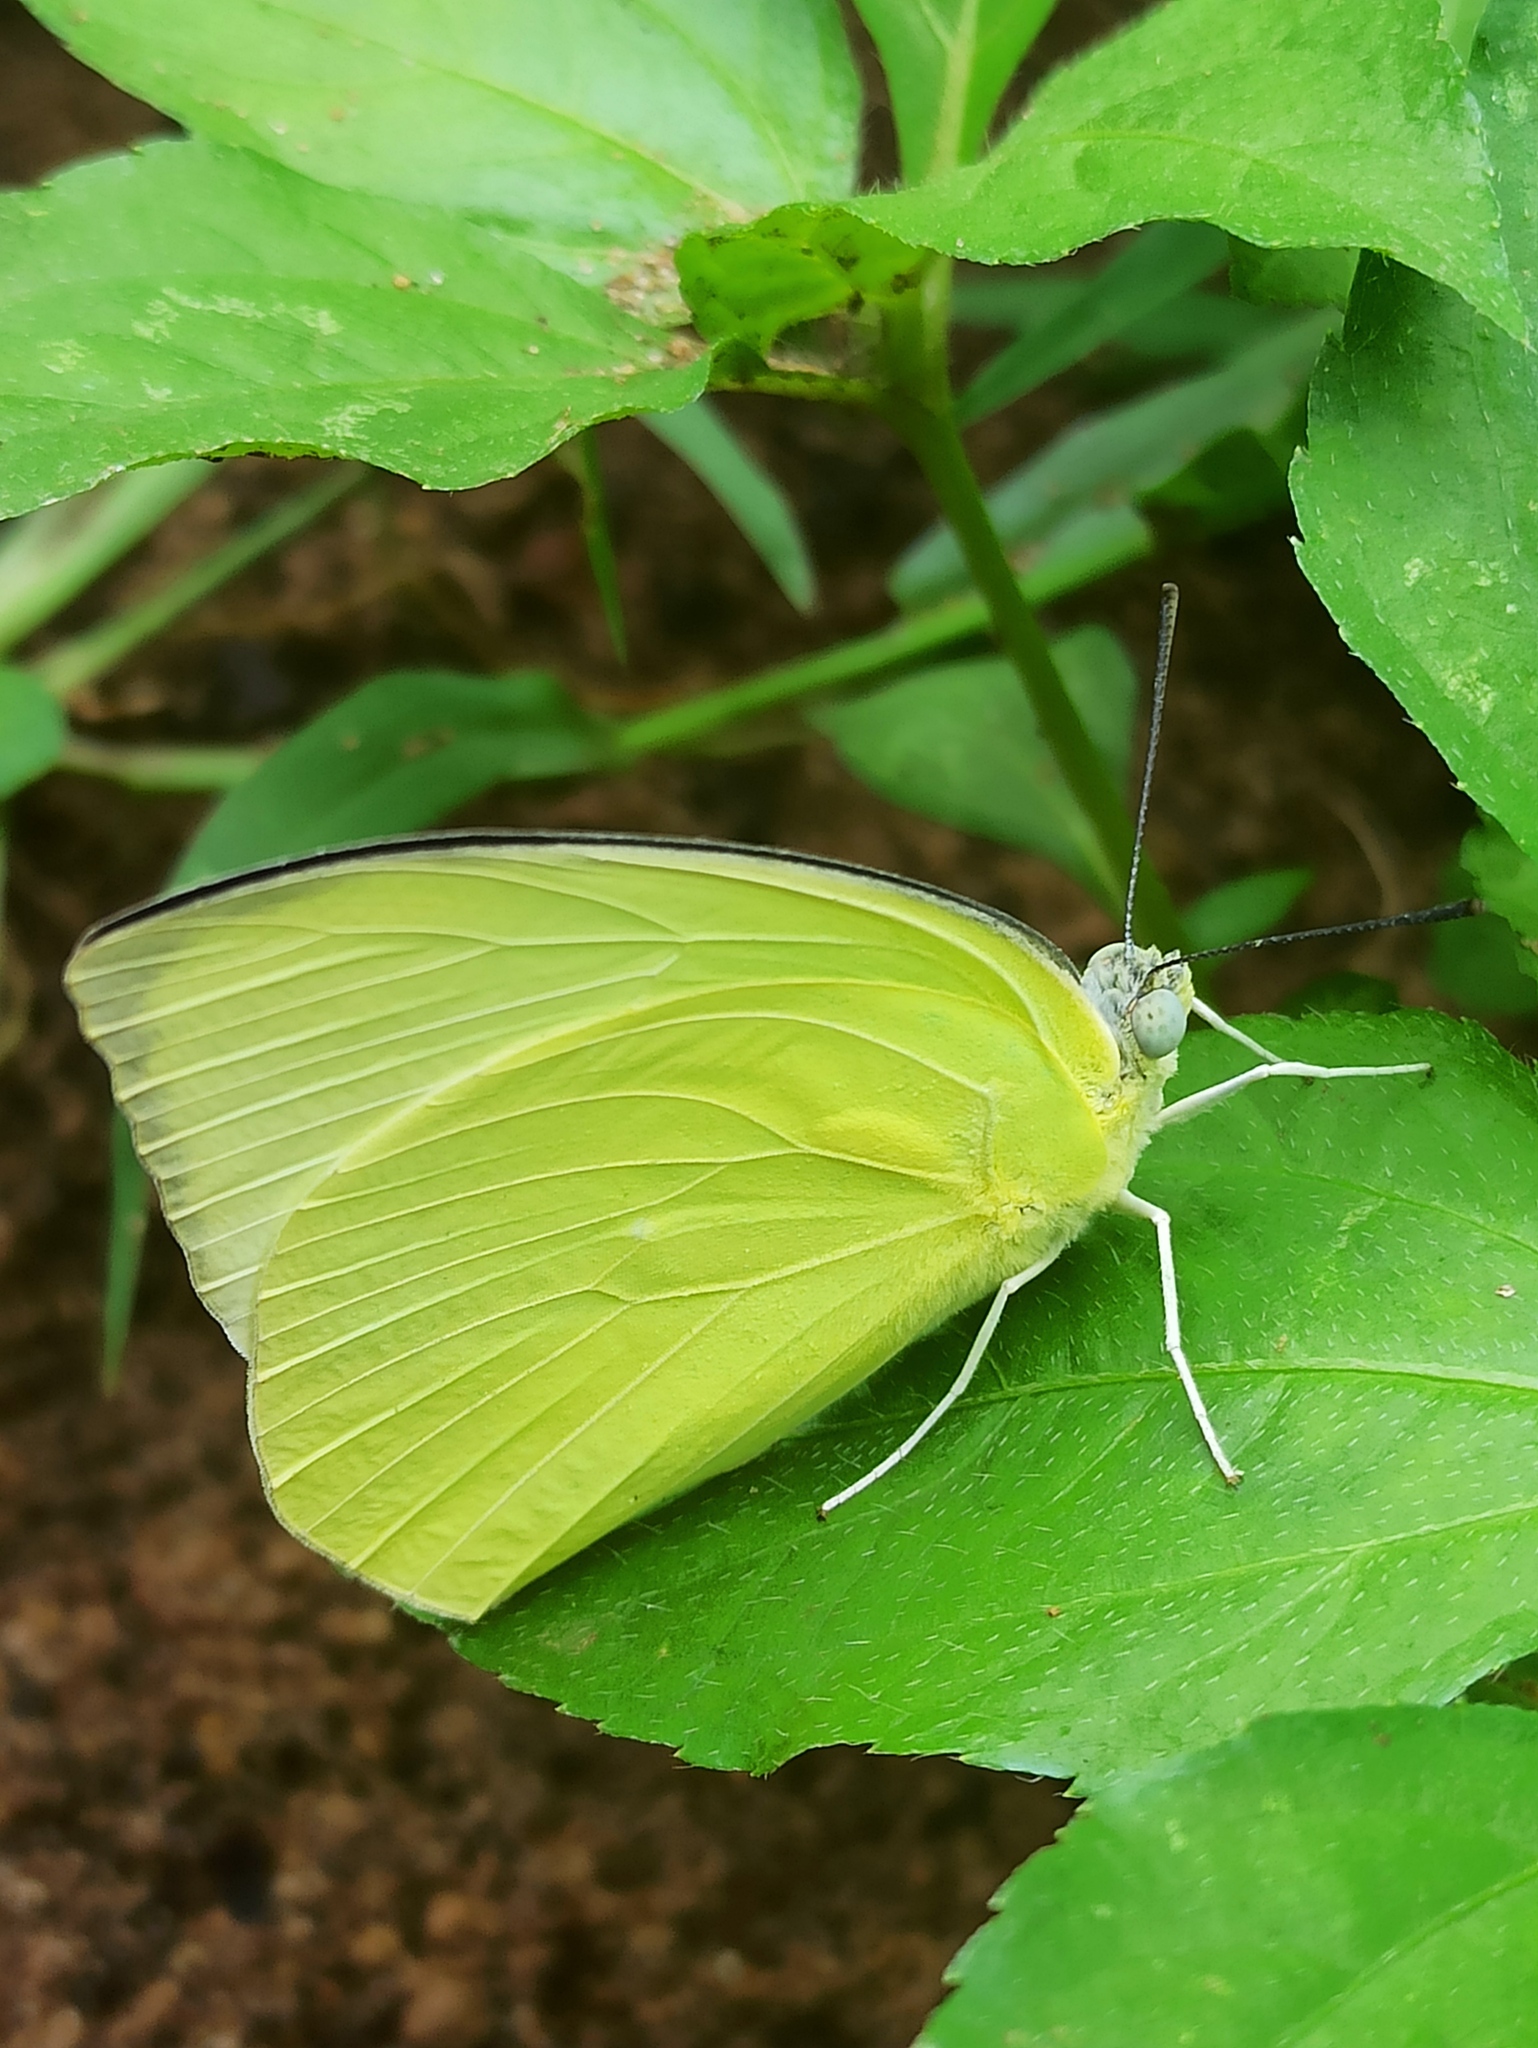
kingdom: Animalia
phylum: Arthropoda
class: Insecta
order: Lepidoptera
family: Pieridae
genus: Catopsilia
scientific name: Catopsilia pomona
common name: Common emigrant
